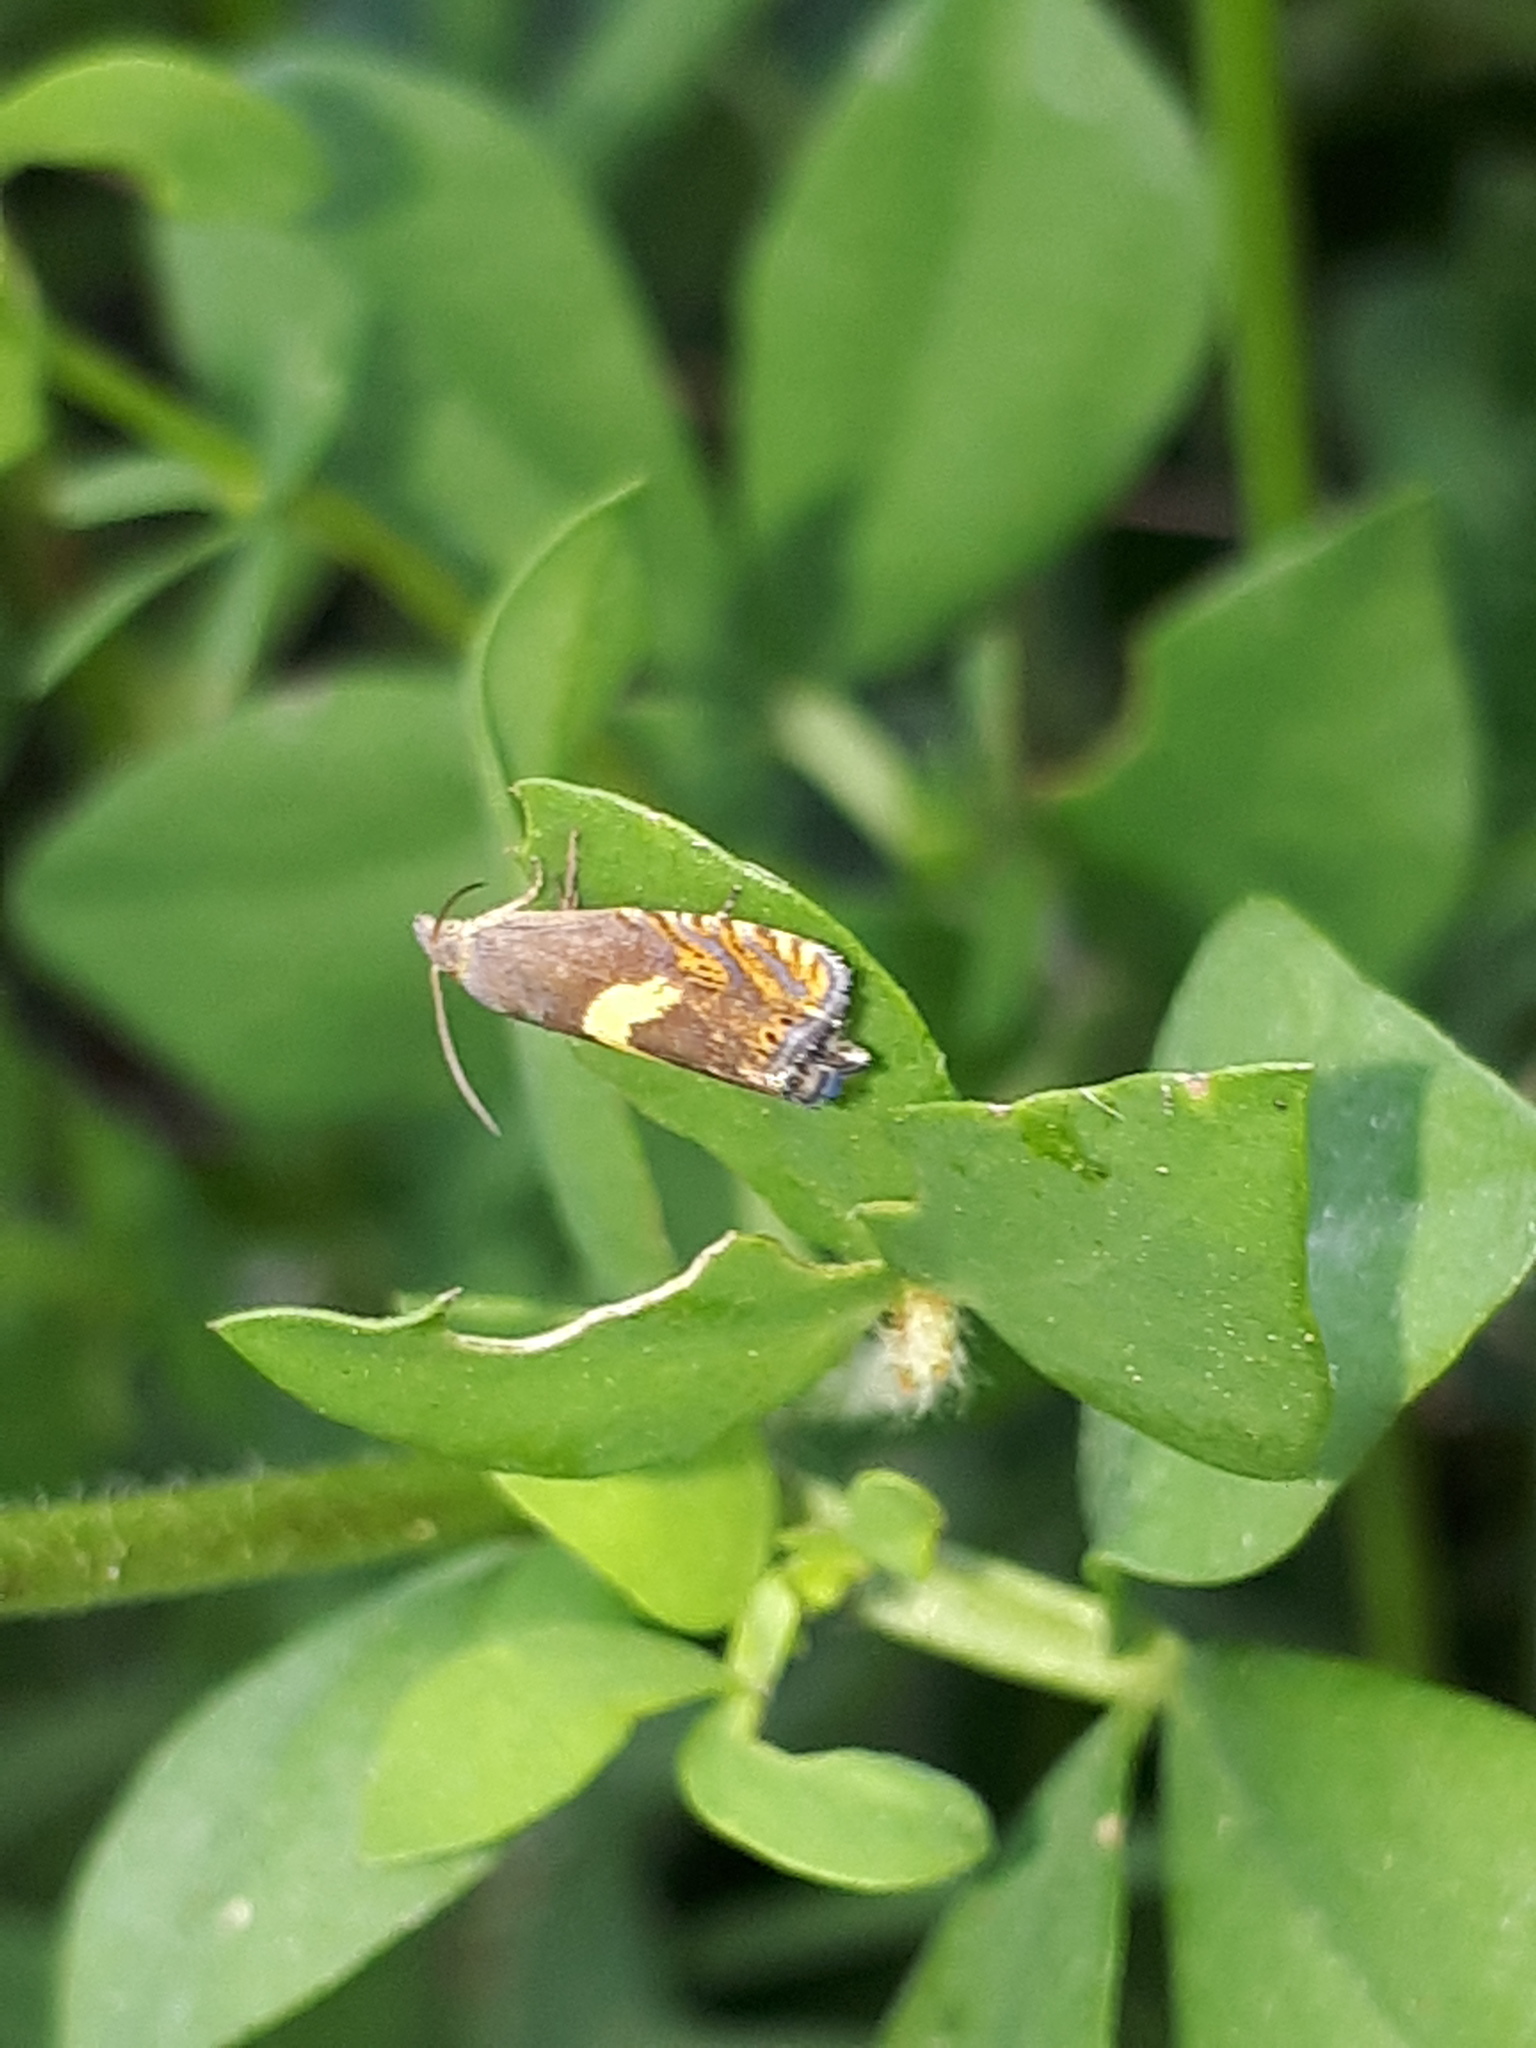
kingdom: Animalia
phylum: Arthropoda
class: Insecta
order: Lepidoptera
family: Tortricidae
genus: Dichrorampha
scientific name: Dichrorampha petiverella
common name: Common drill
